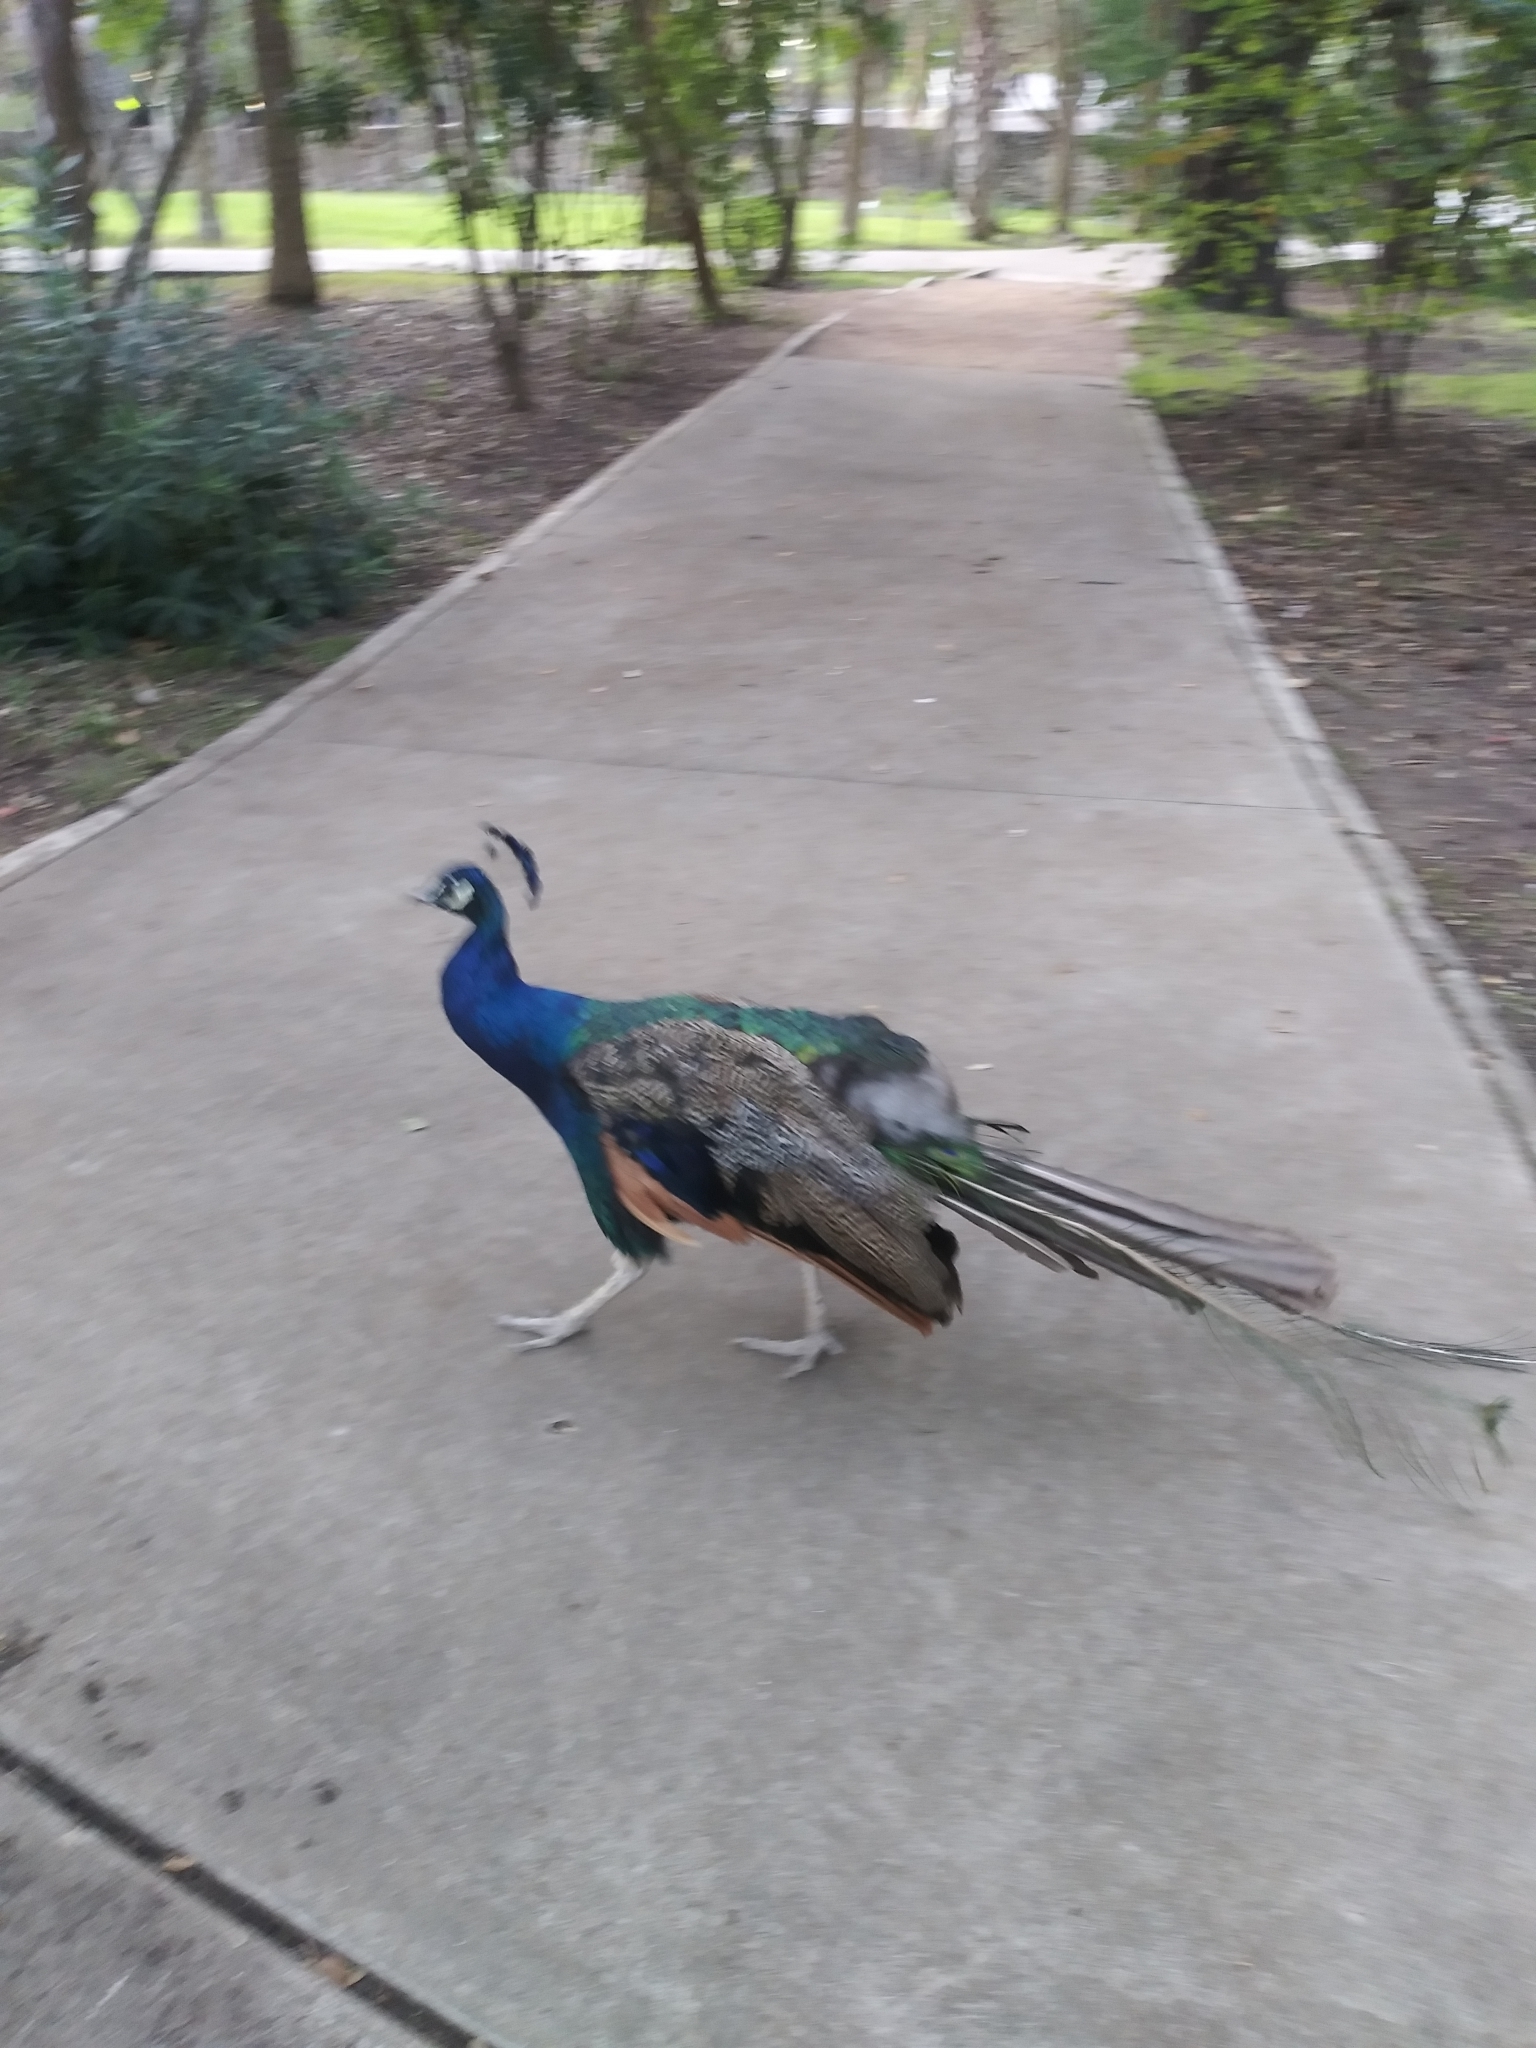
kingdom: Animalia
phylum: Chordata
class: Aves
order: Galliformes
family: Phasianidae
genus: Pavo
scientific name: Pavo cristatus
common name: Indian peafowl
